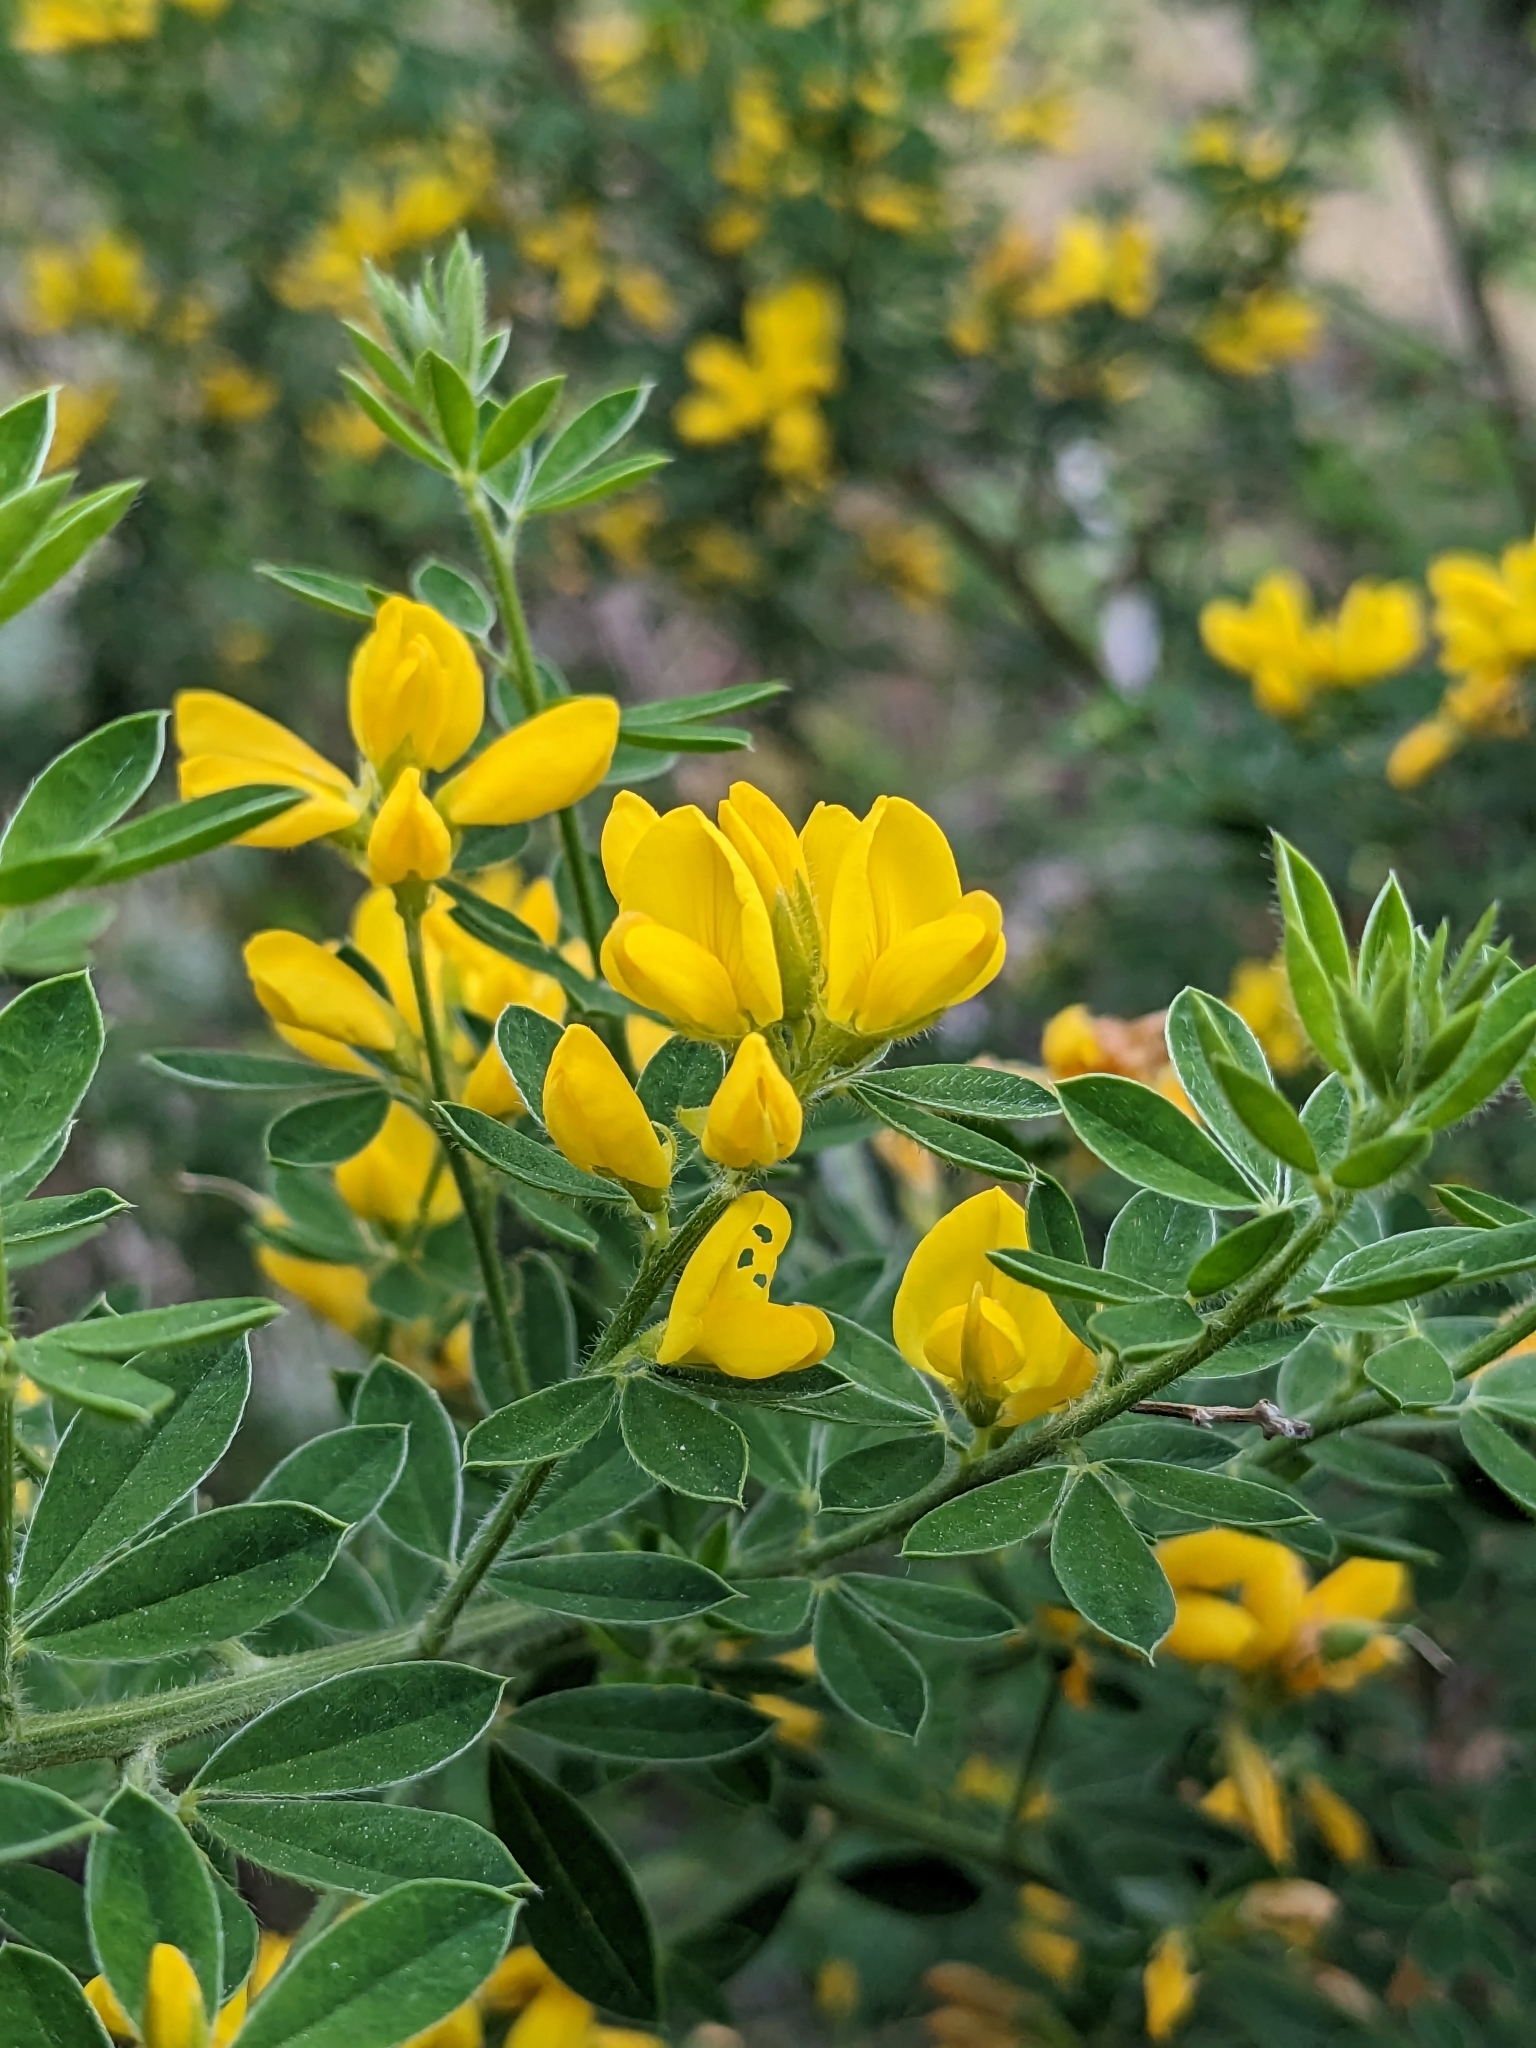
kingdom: Plantae
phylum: Tracheophyta
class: Magnoliopsida
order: Fabales
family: Fabaceae
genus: Genista
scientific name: Genista monspessulana
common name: Montpellier broom
